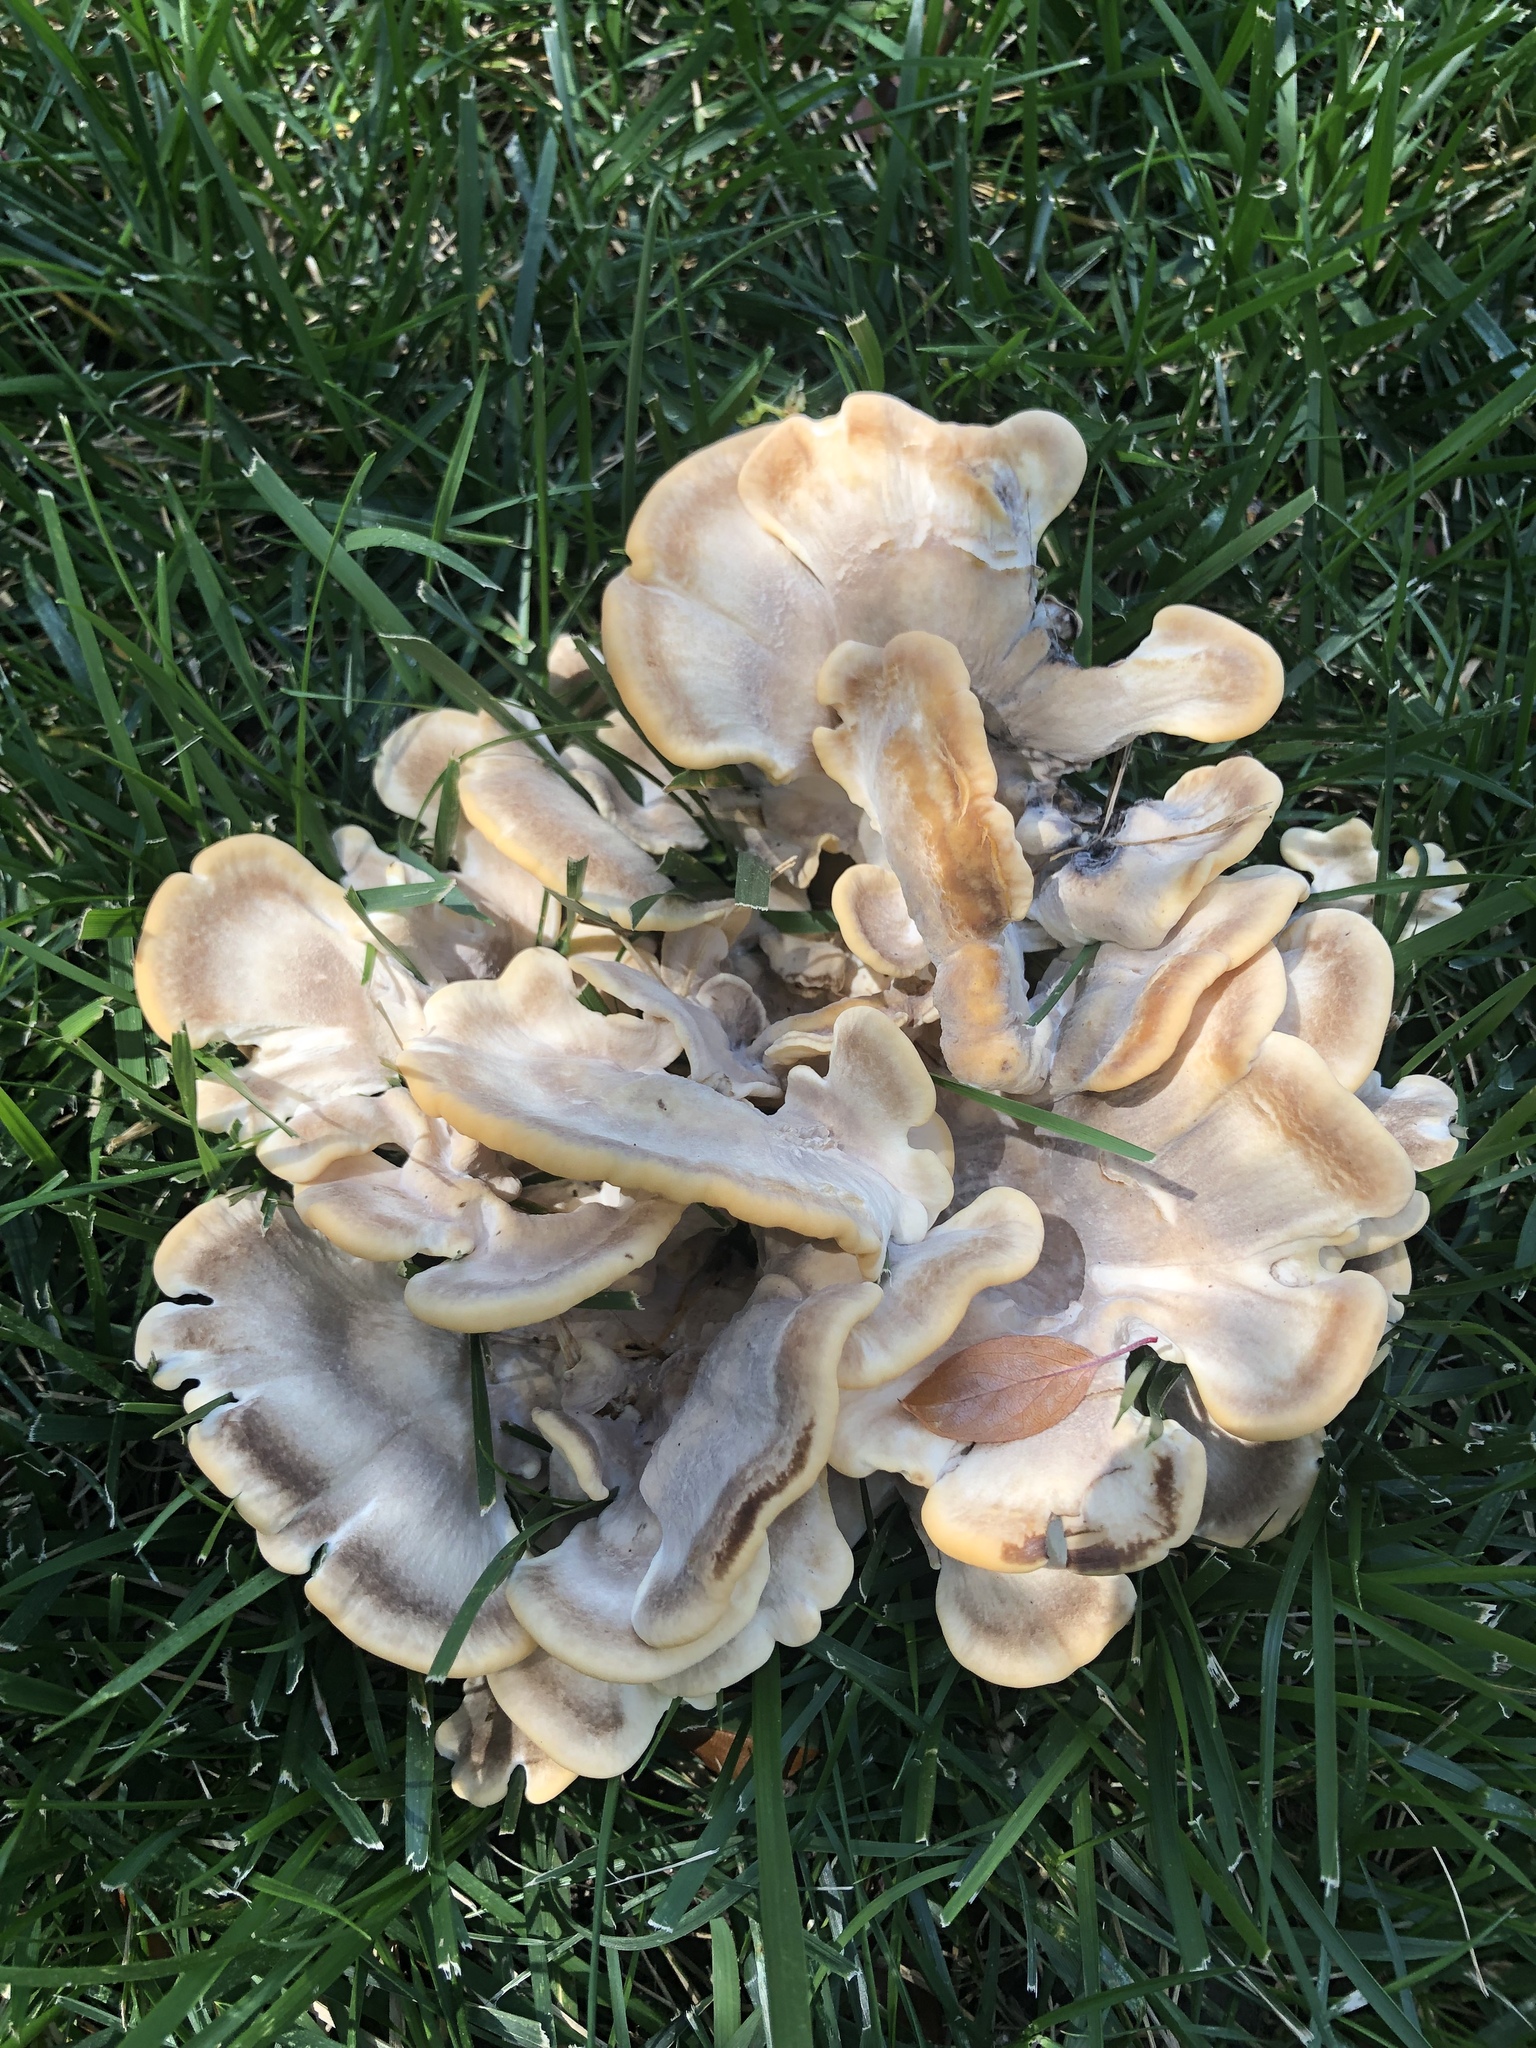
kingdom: Fungi
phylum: Basidiomycota
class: Agaricomycetes
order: Polyporales
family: Meripilaceae
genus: Meripilus
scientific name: Meripilus sumstinei
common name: Black-staining polypore
